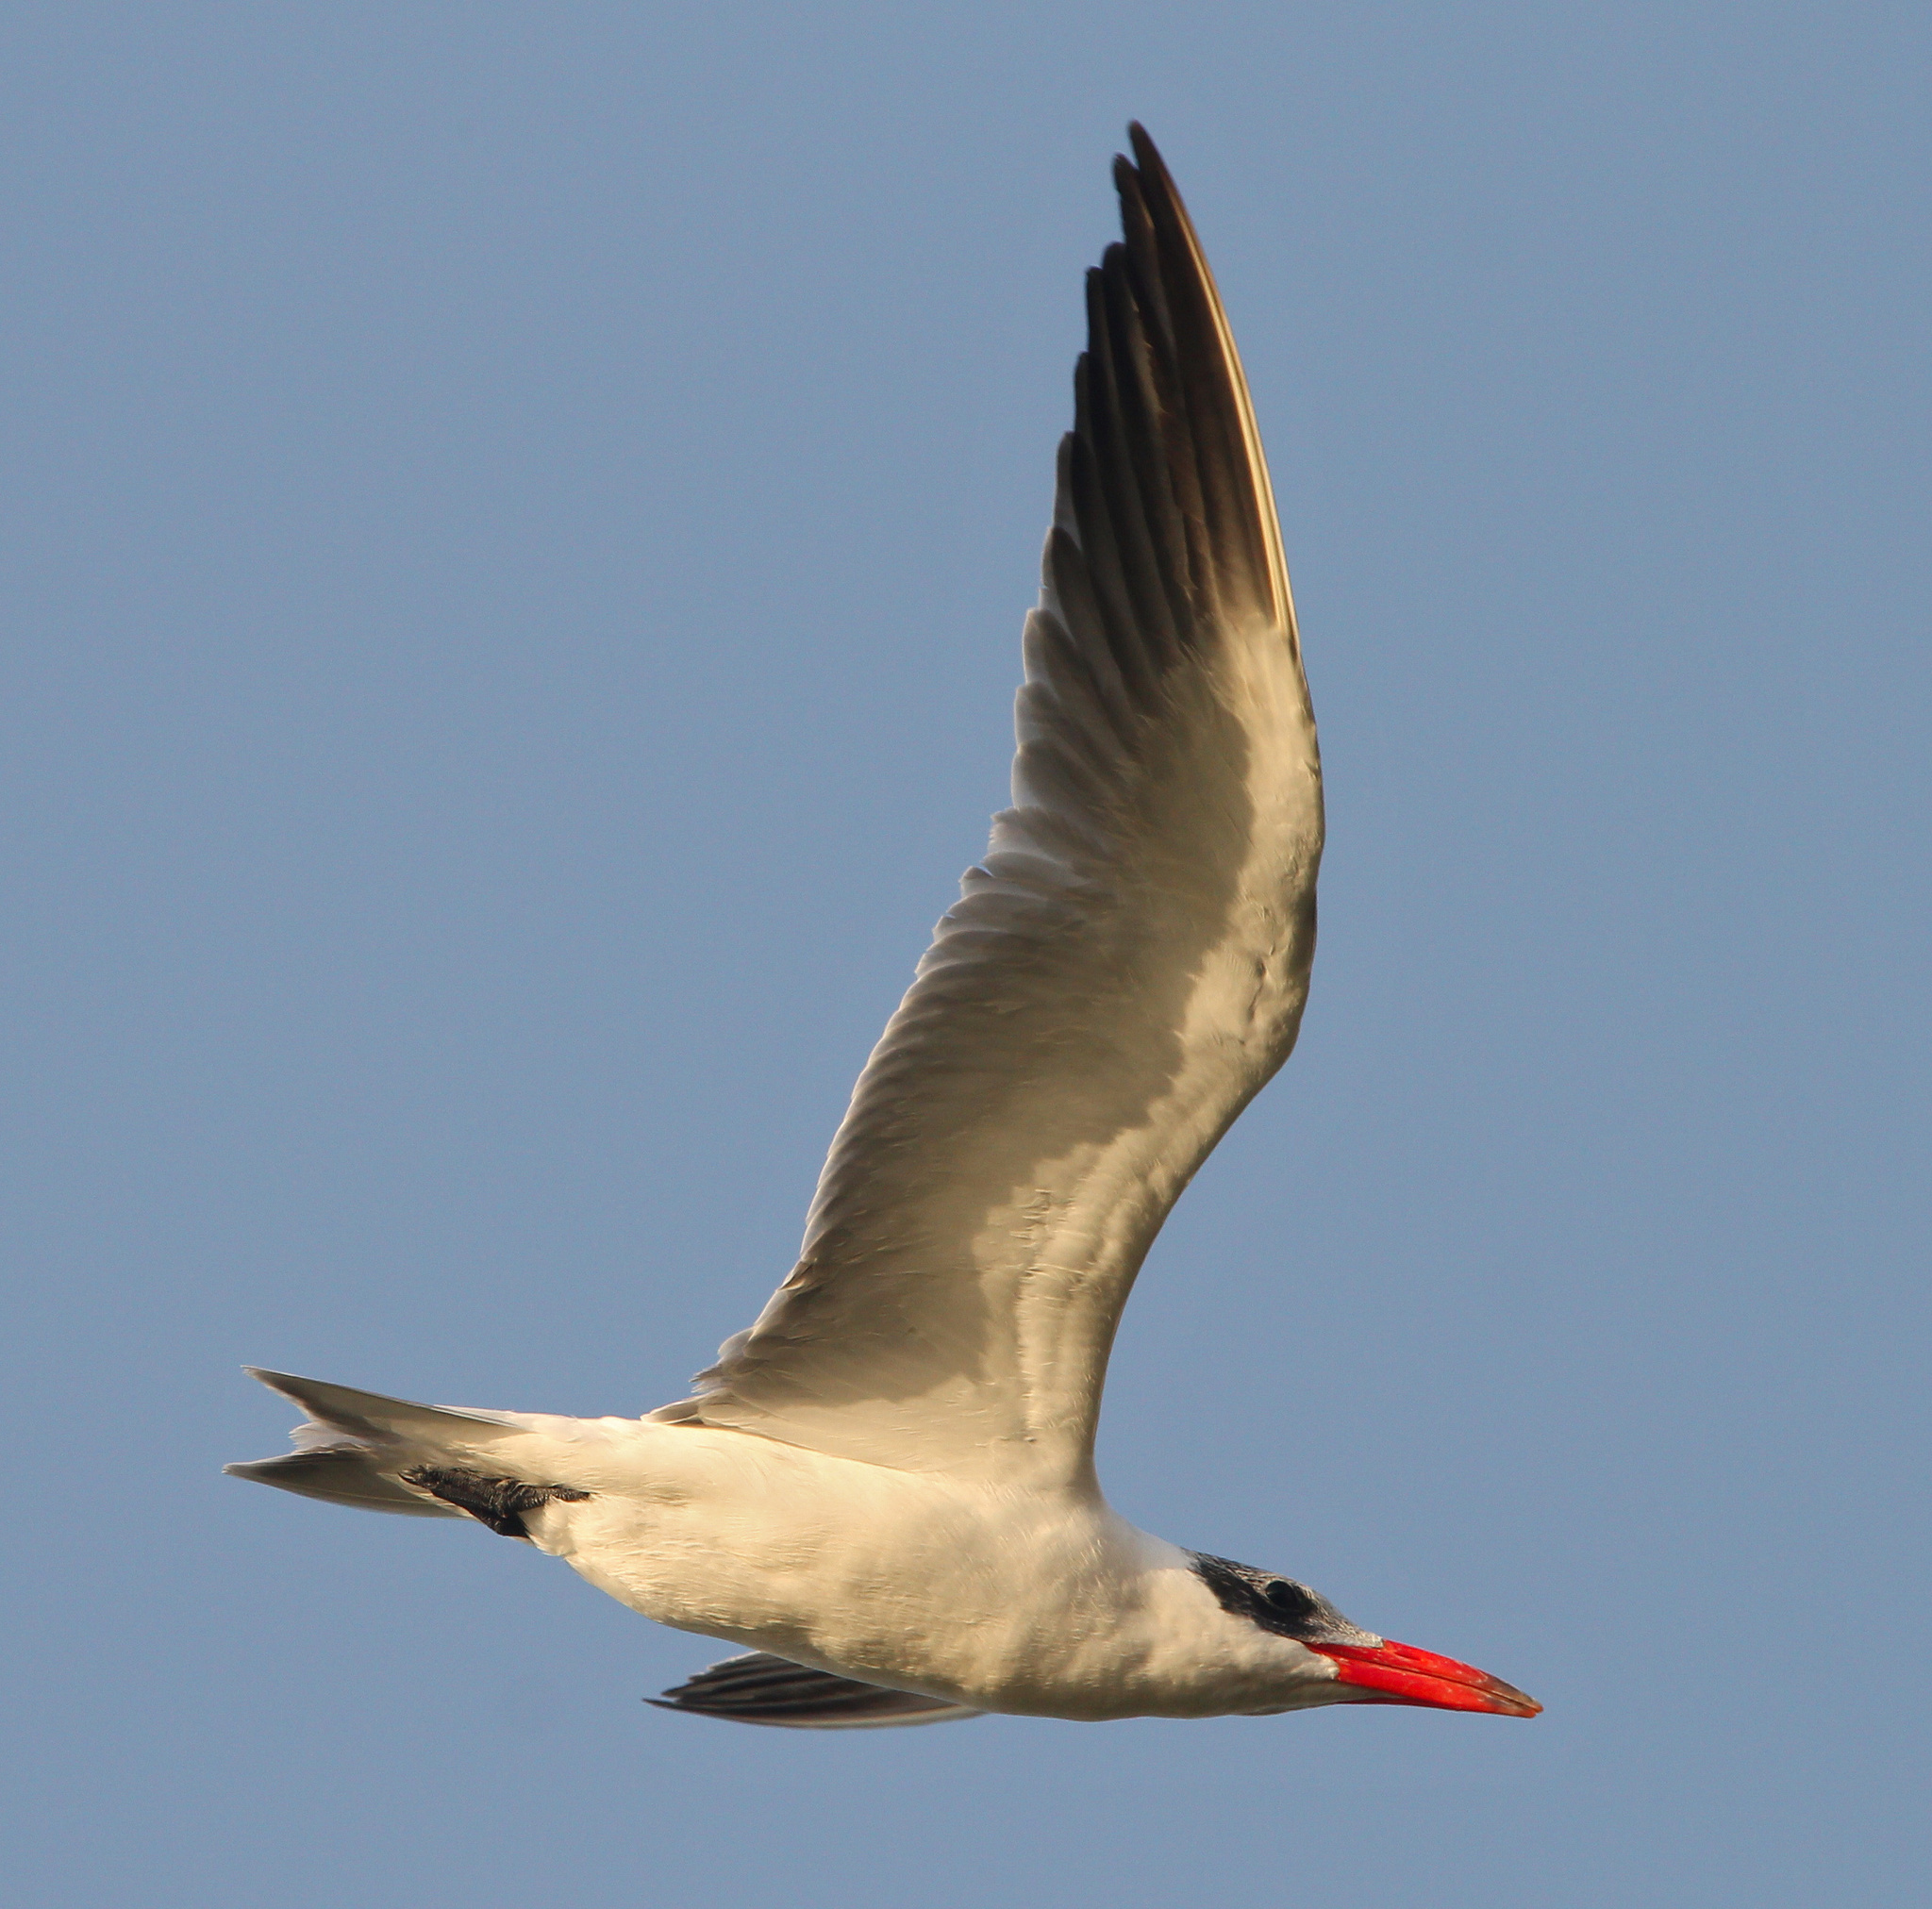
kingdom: Animalia
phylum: Chordata
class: Aves
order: Charadriiformes
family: Laridae
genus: Hydroprogne
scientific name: Hydroprogne caspia
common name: Caspian tern
